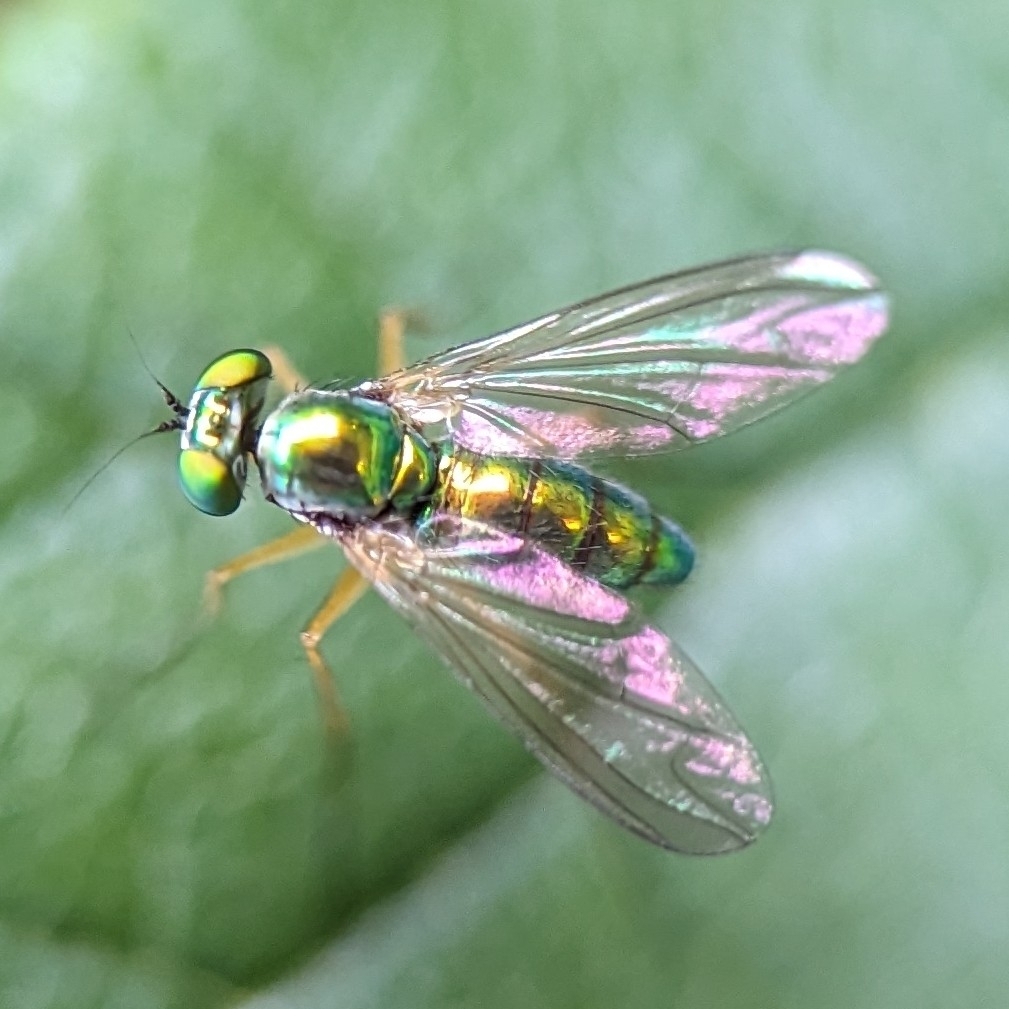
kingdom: Animalia
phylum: Arthropoda
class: Insecta
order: Diptera
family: Dolichopodidae
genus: Amblypsilopus
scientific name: Amblypsilopus scintillans
